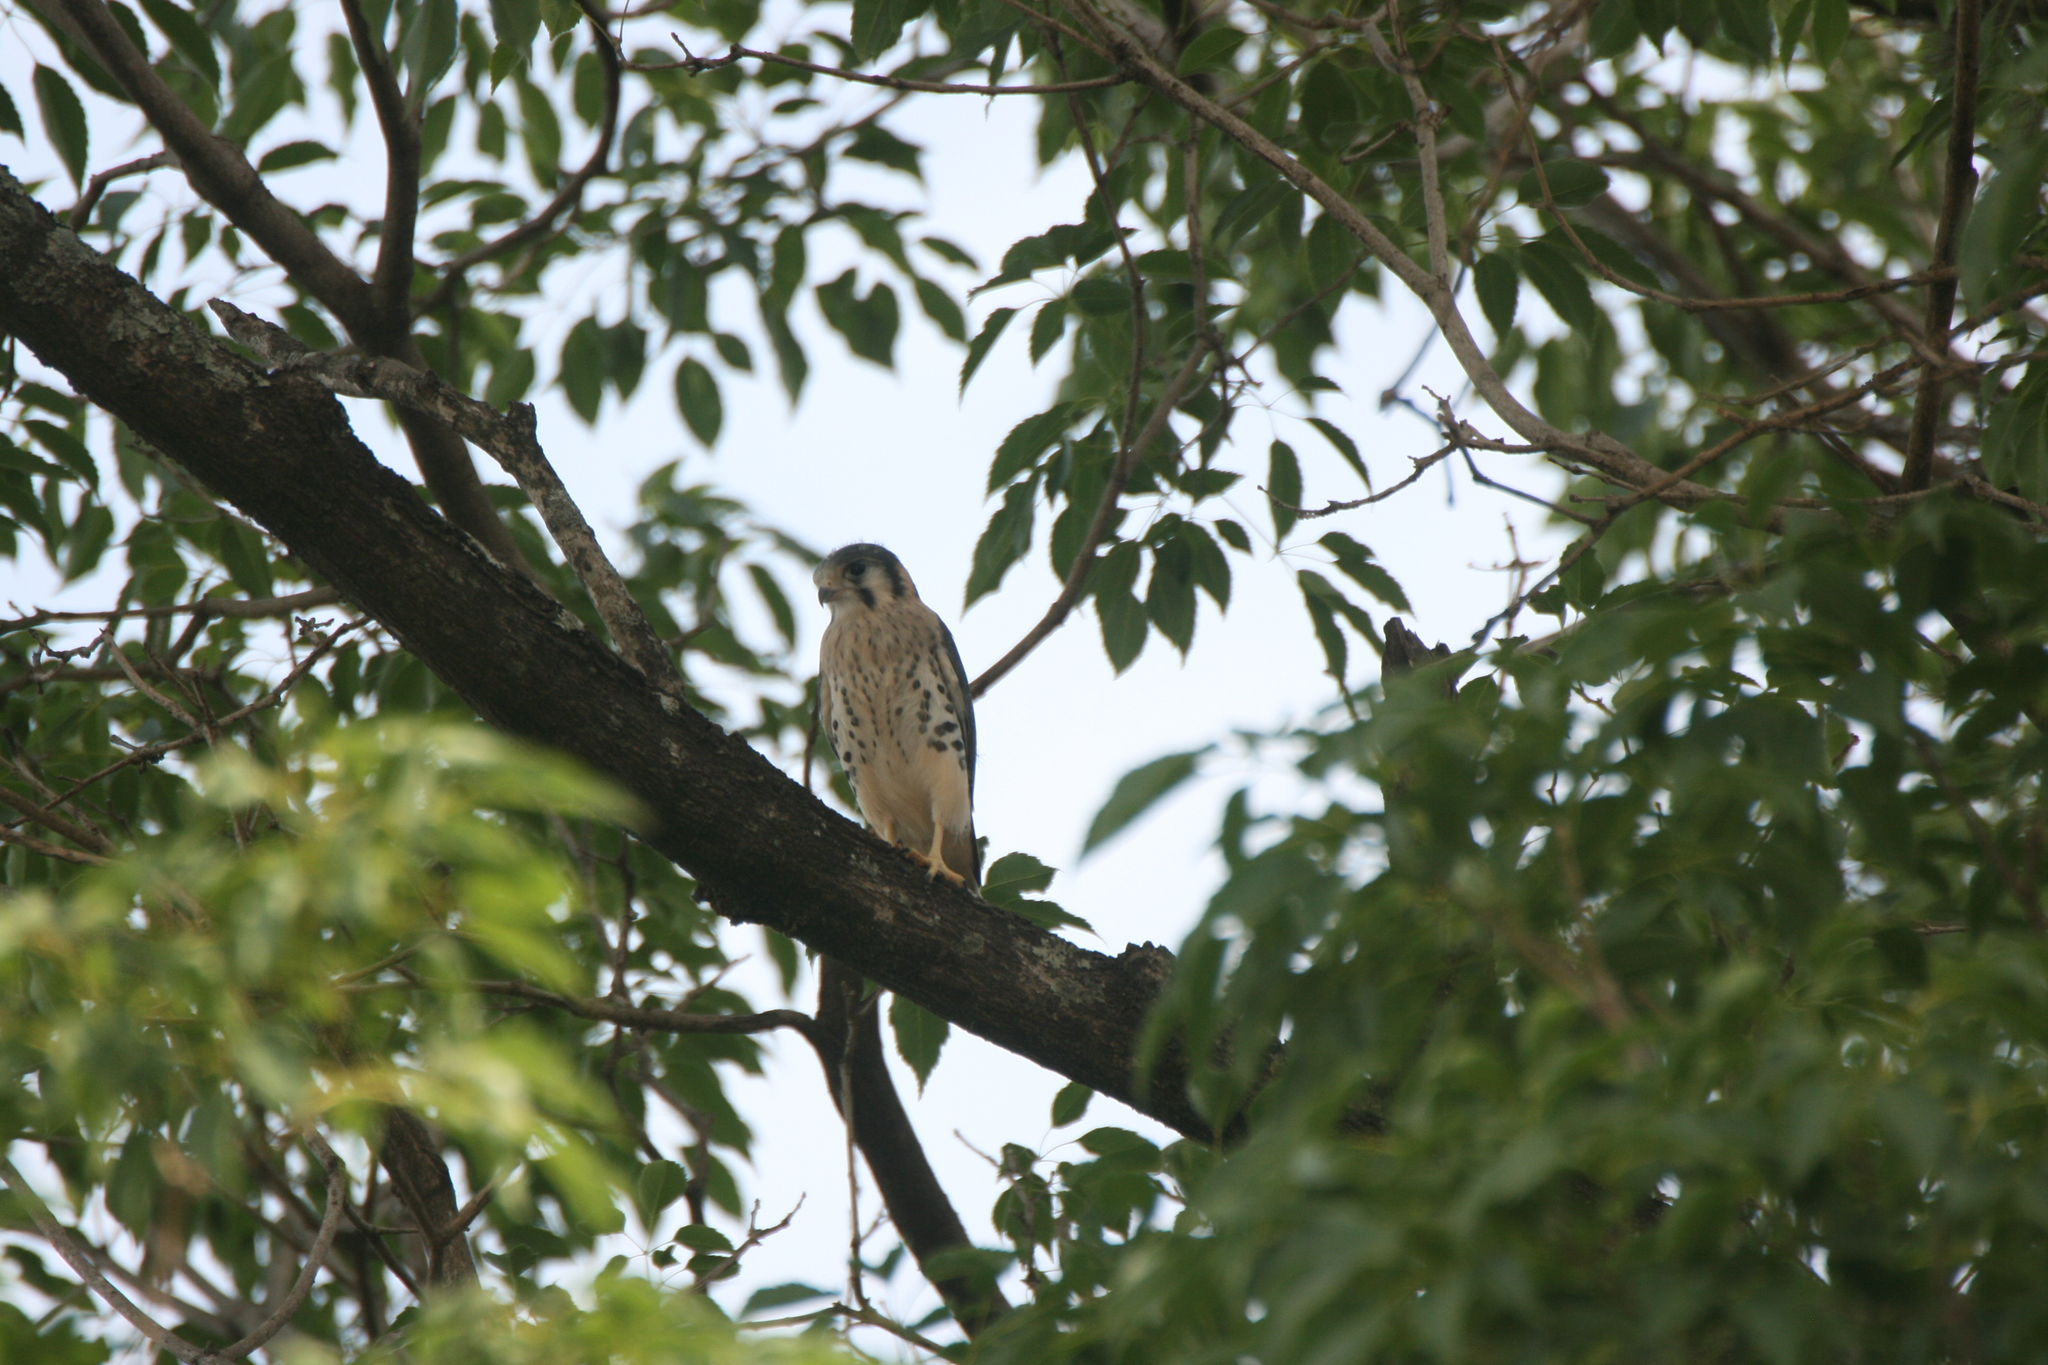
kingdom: Animalia
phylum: Chordata
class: Aves
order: Falconiformes
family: Falconidae
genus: Falco
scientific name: Falco sparverius
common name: American kestrel
